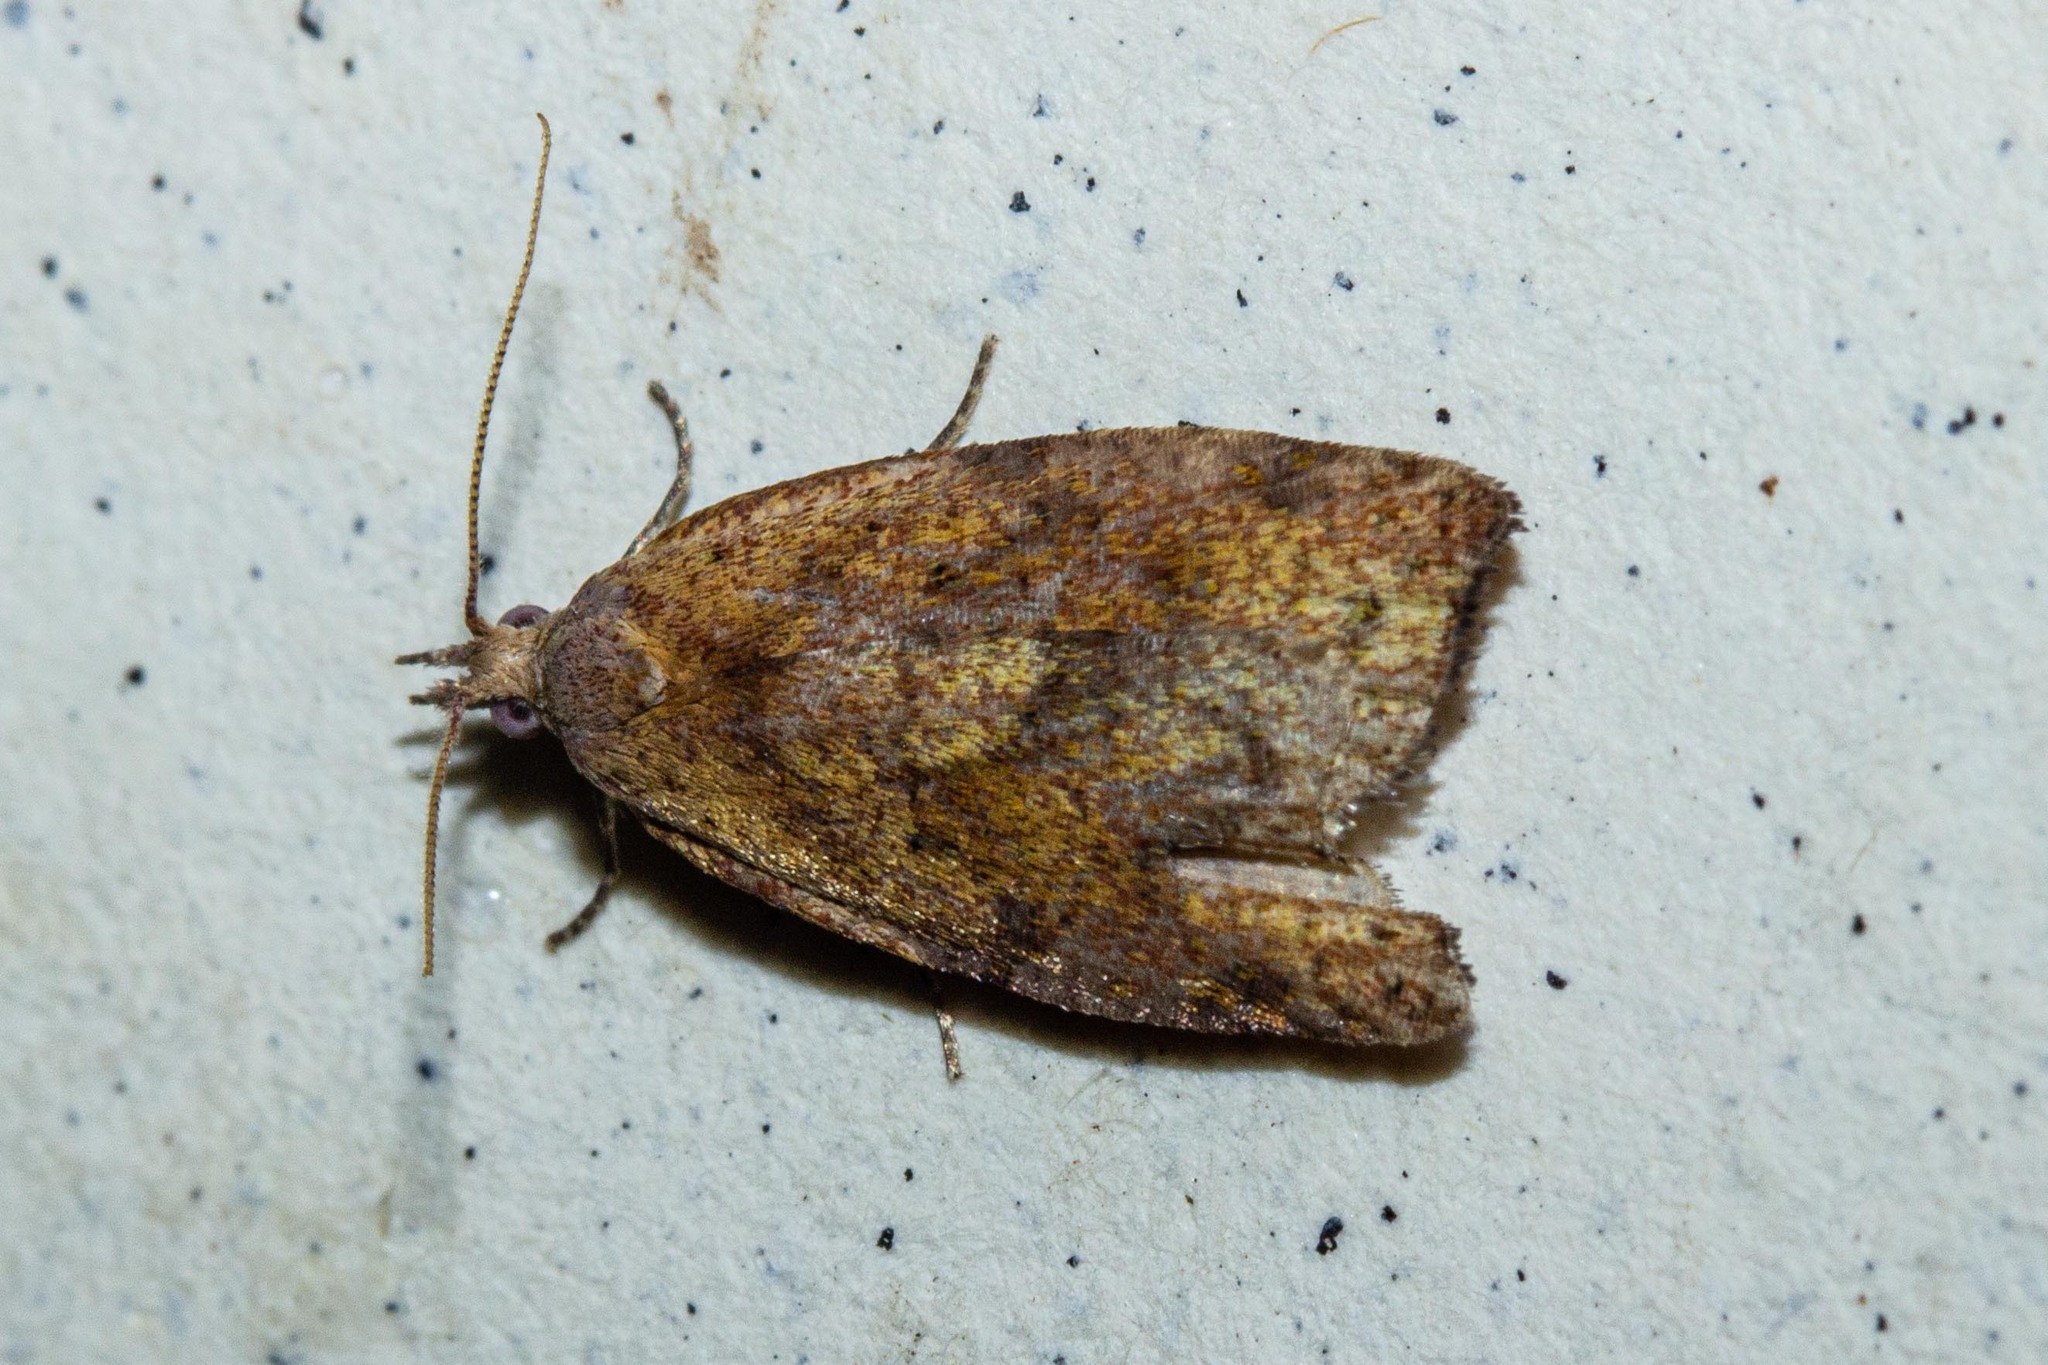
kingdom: Animalia
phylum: Arthropoda
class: Insecta
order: Lepidoptera
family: Tortricidae
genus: Apoctena
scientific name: Apoctena flavescens
